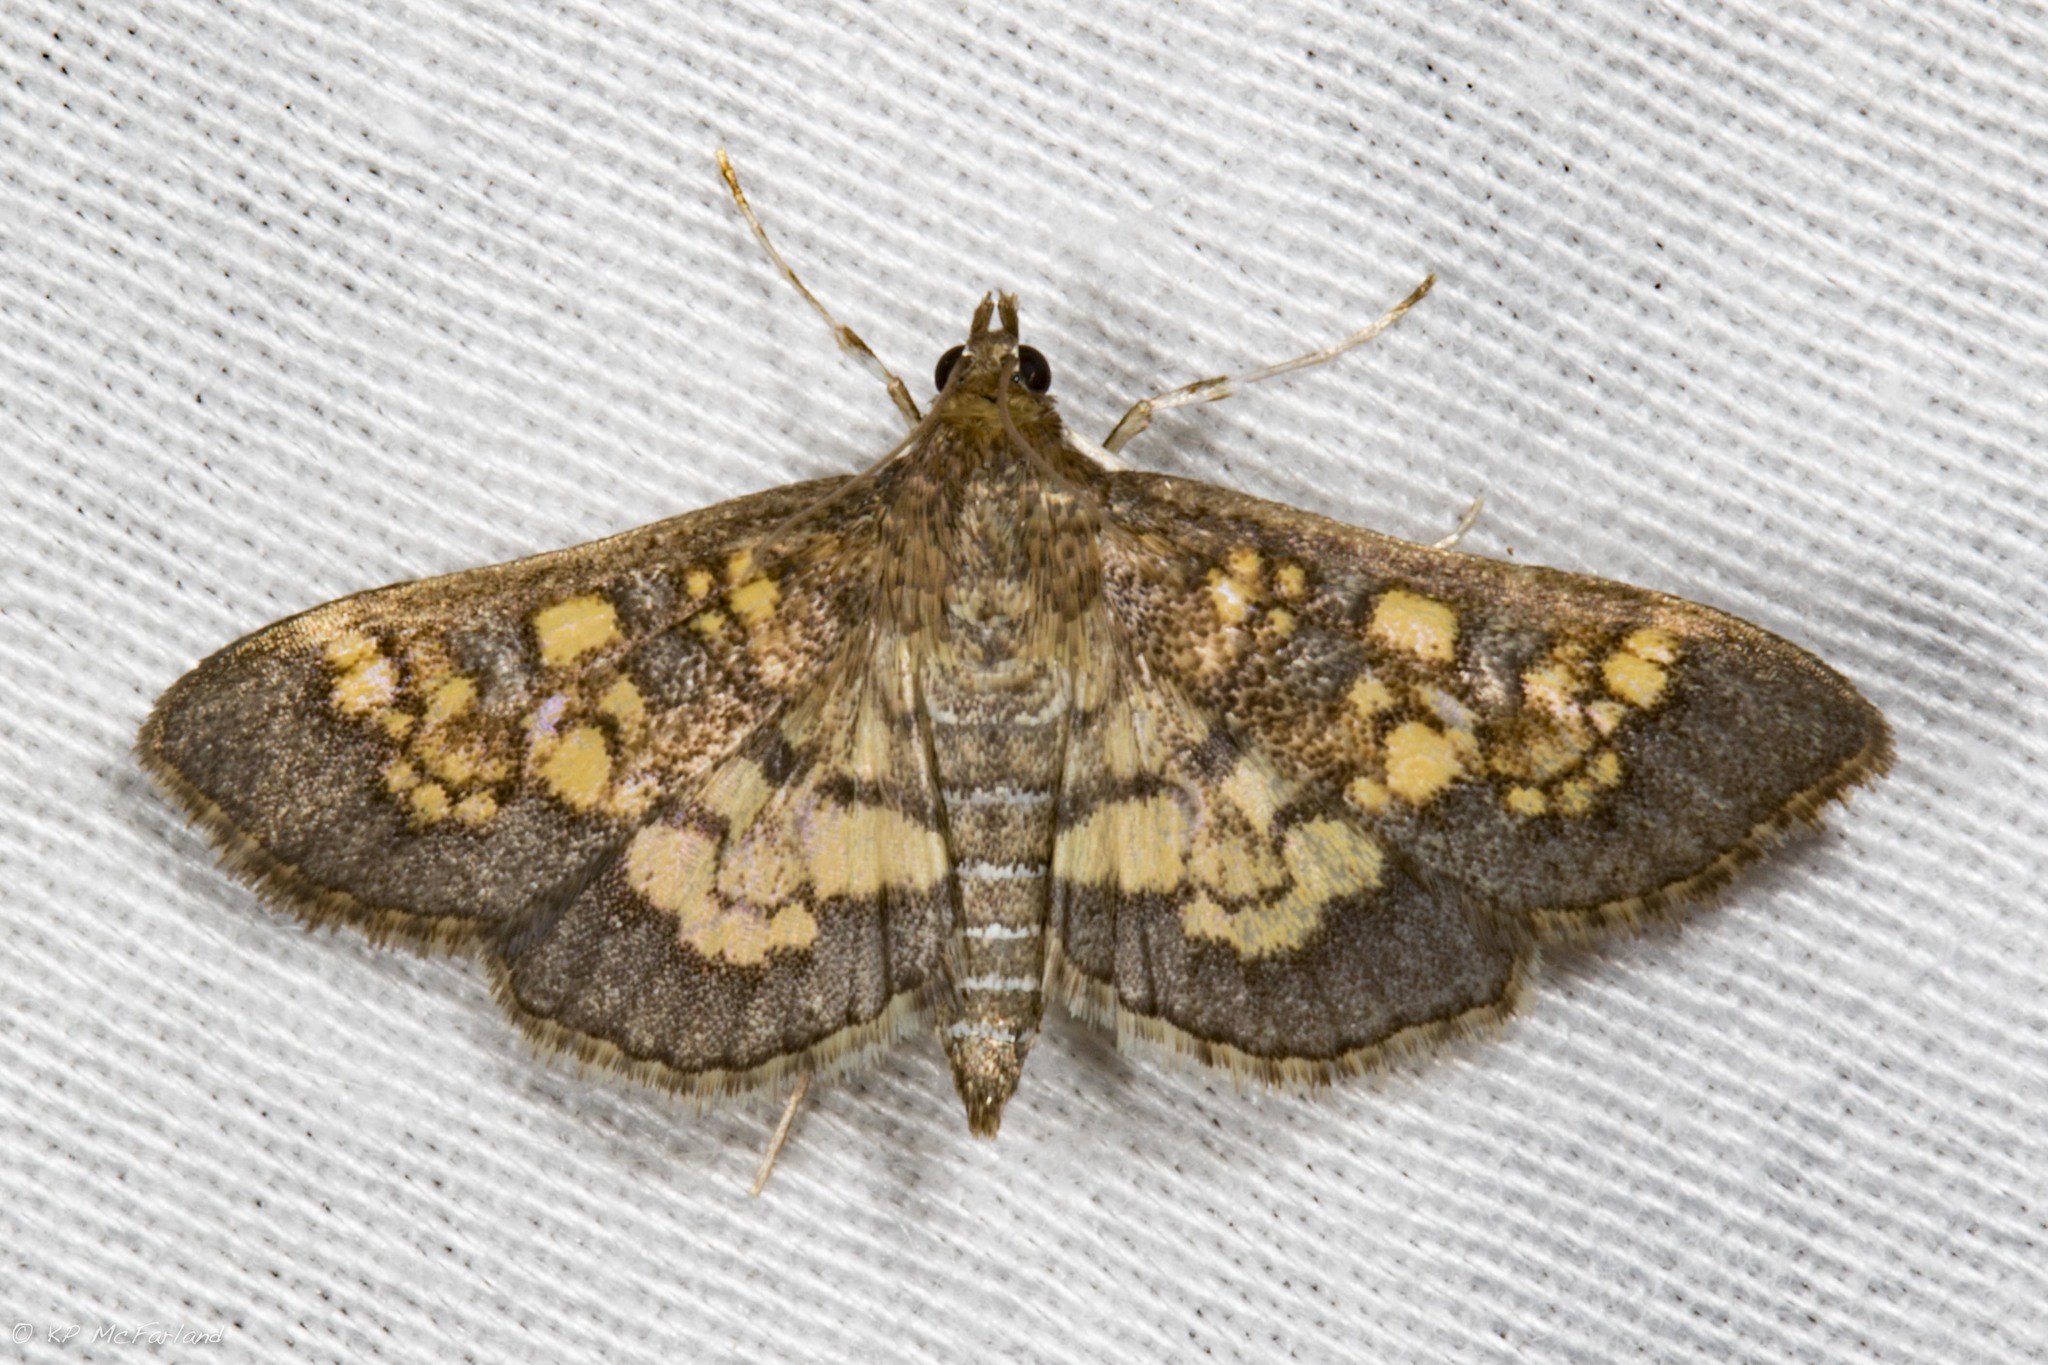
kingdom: Animalia
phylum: Arthropoda
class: Insecta
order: Lepidoptera
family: Crambidae
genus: Epipagis
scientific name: Epipagis adipaloides
